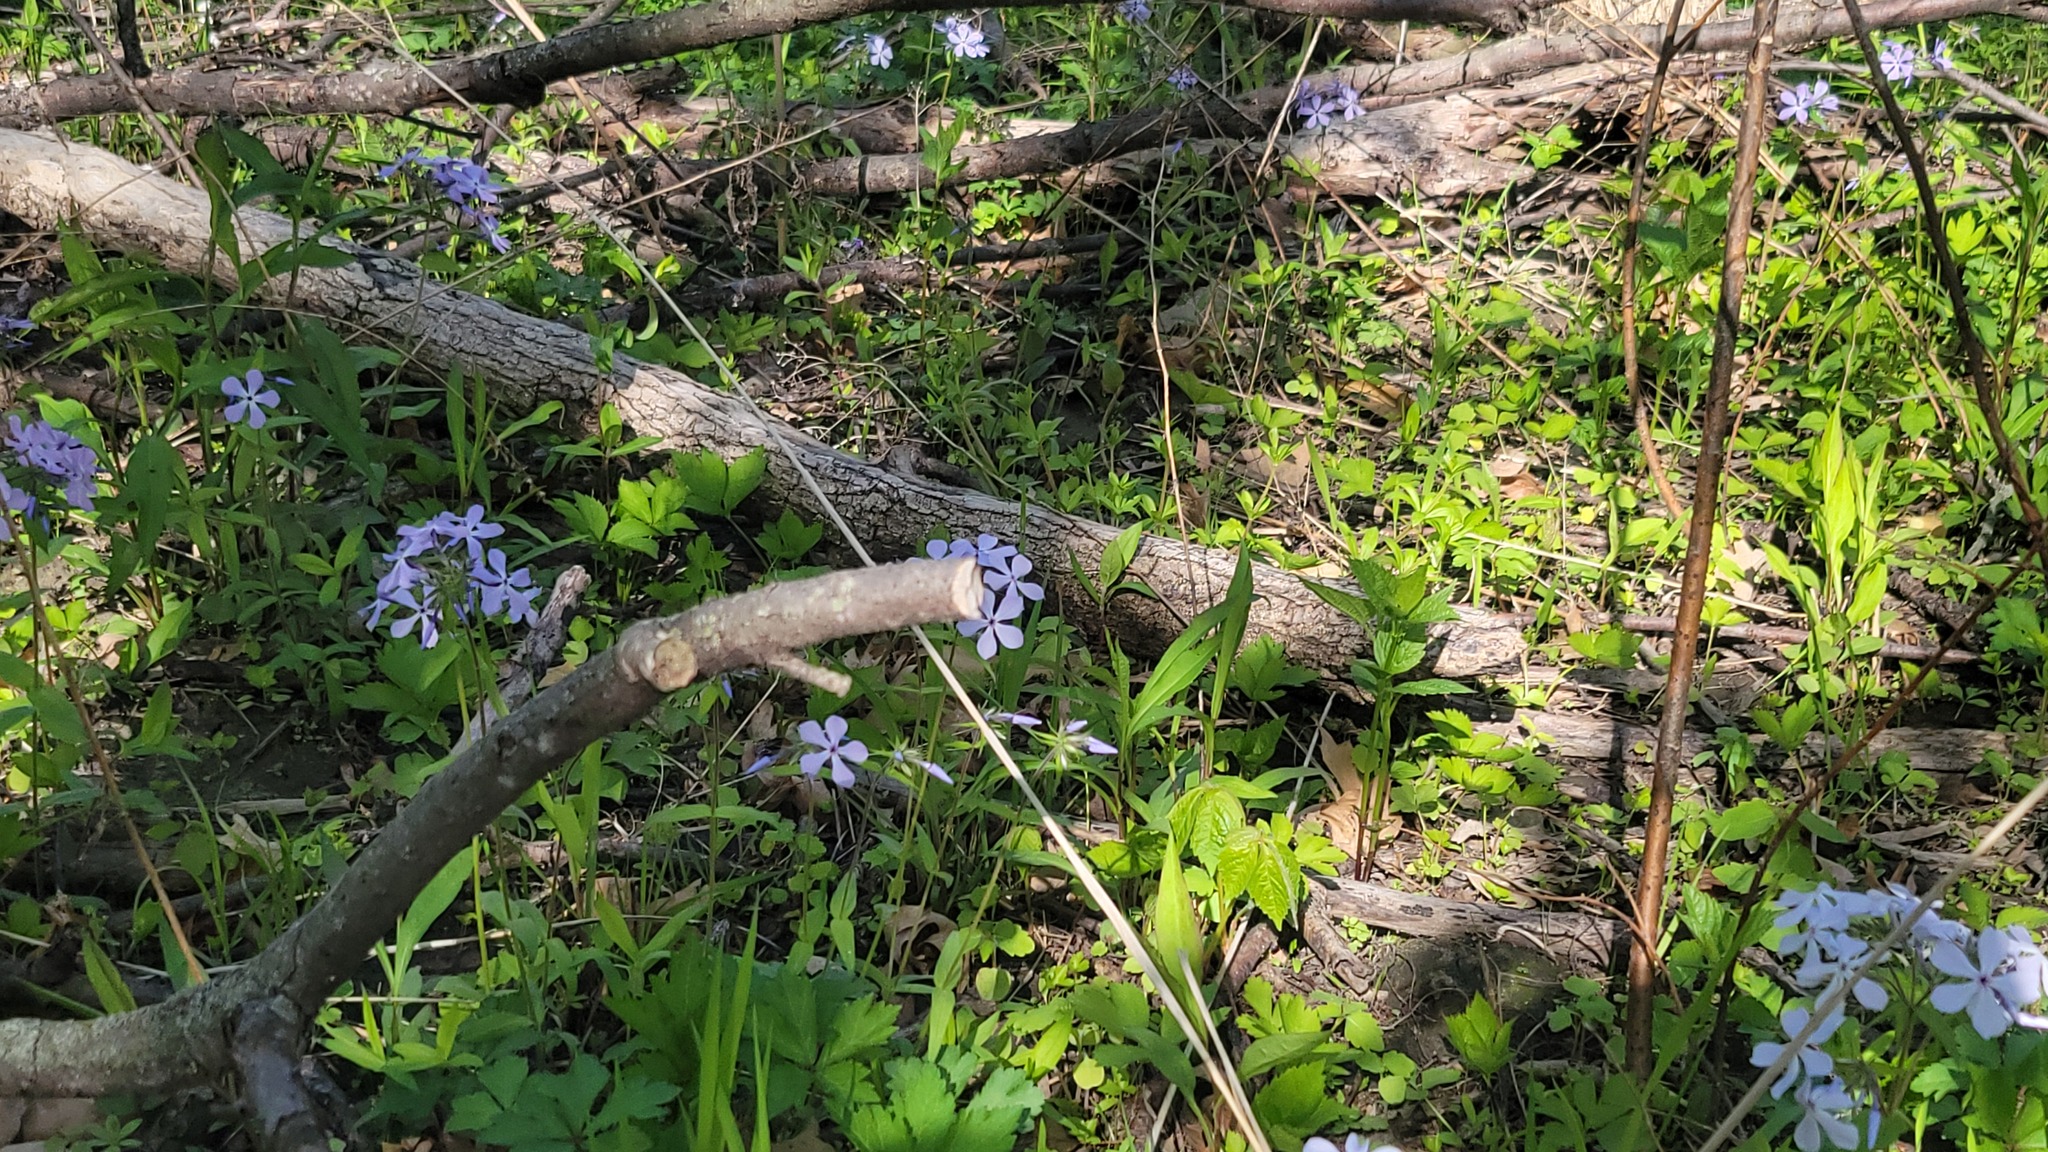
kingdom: Plantae
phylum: Tracheophyta
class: Magnoliopsida
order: Ericales
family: Polemoniaceae
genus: Phlox
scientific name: Phlox divaricata
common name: Blue phlox
